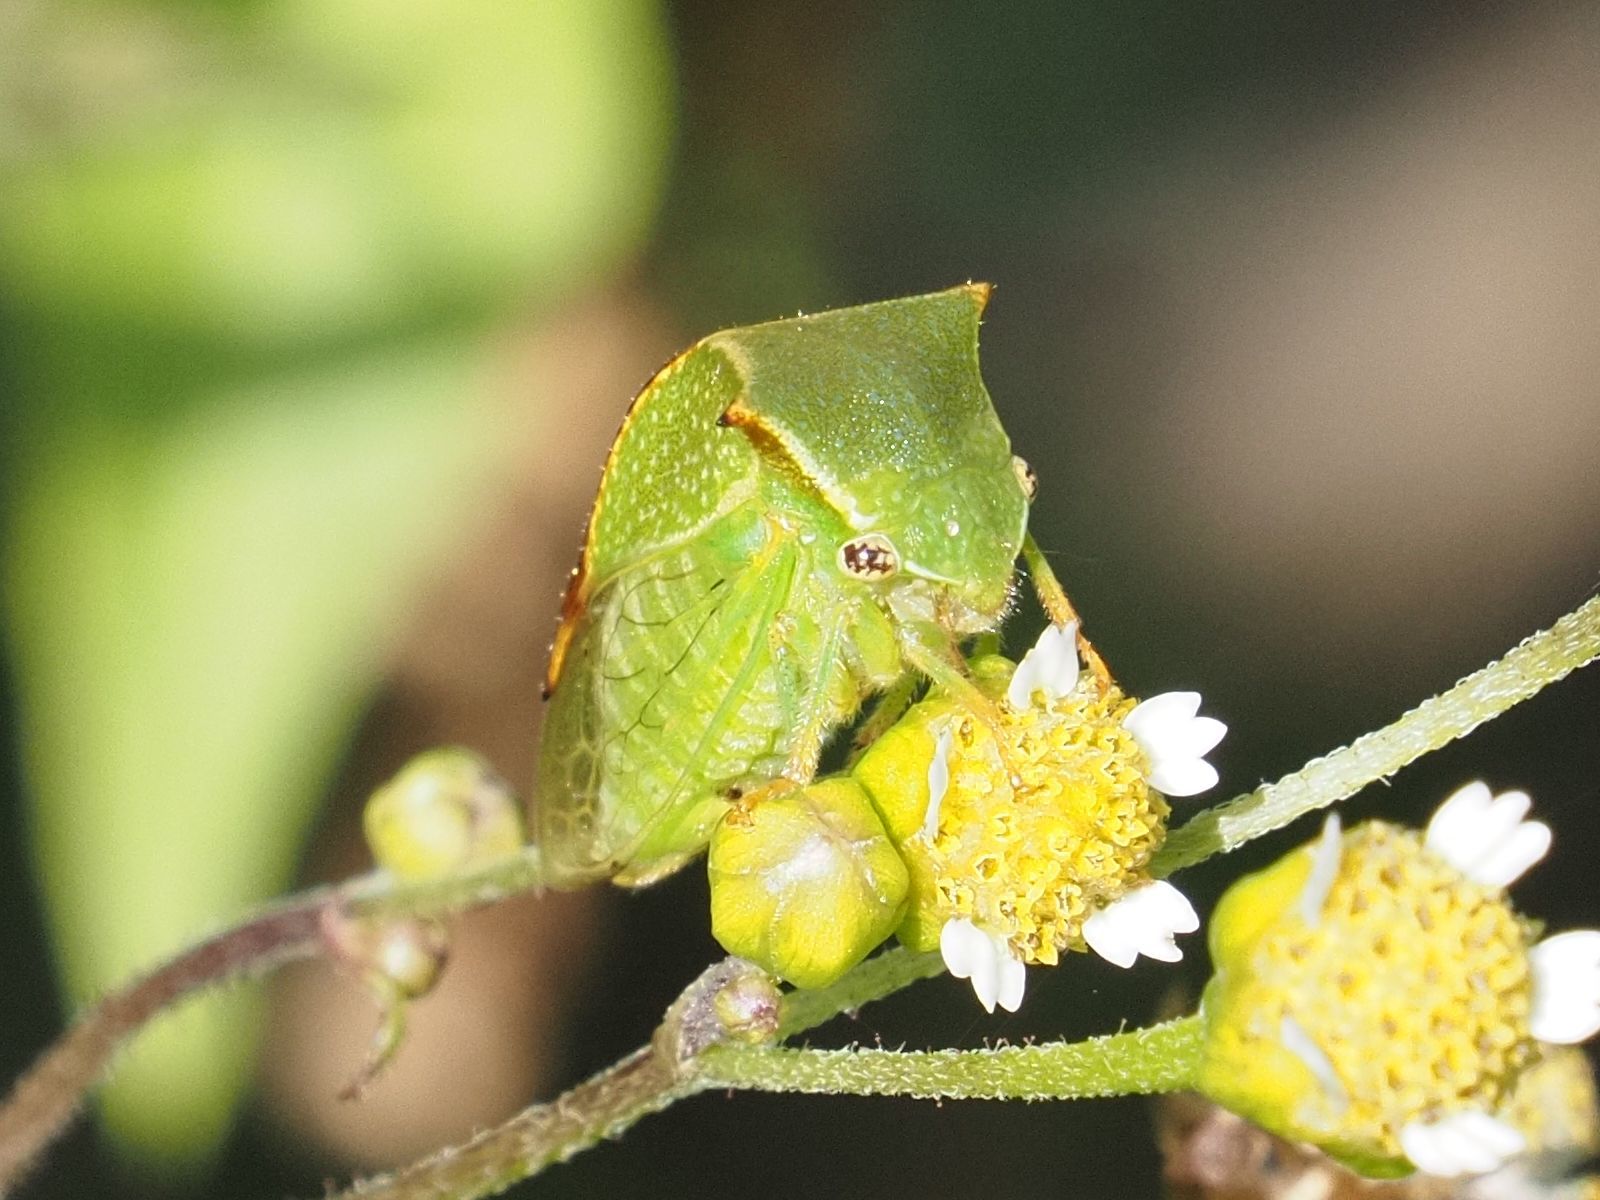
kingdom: Animalia
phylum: Arthropoda
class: Insecta
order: Hemiptera
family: Membracidae
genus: Stictocephala
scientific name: Stictocephala bisonia
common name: American buffalo treehopper
